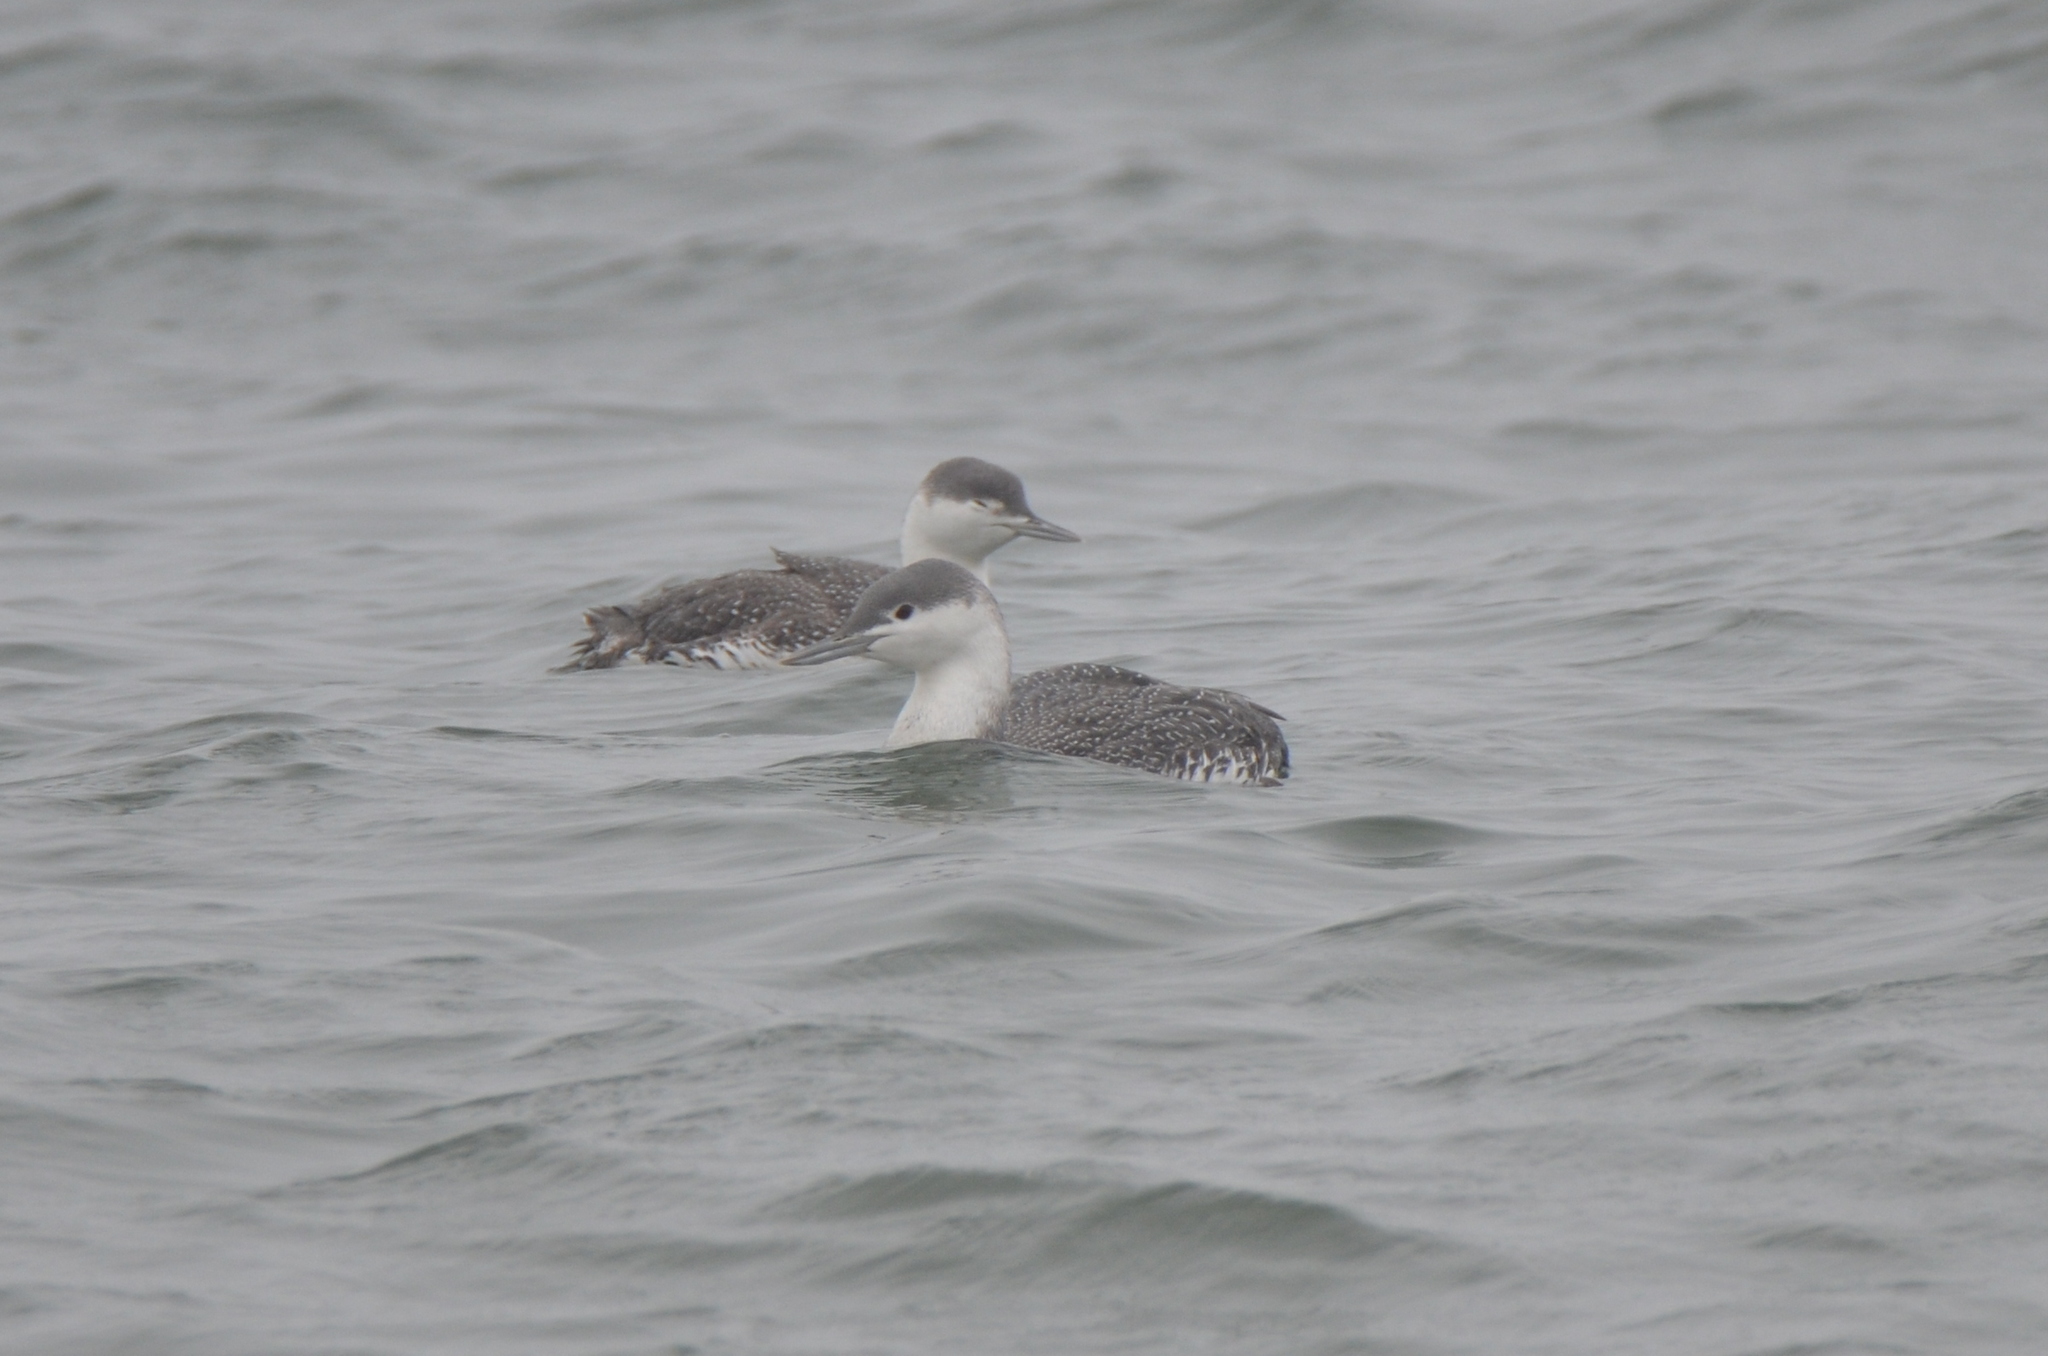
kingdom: Animalia
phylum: Chordata
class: Aves
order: Gaviiformes
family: Gaviidae
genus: Gavia
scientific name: Gavia stellata
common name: Red-throated loon
